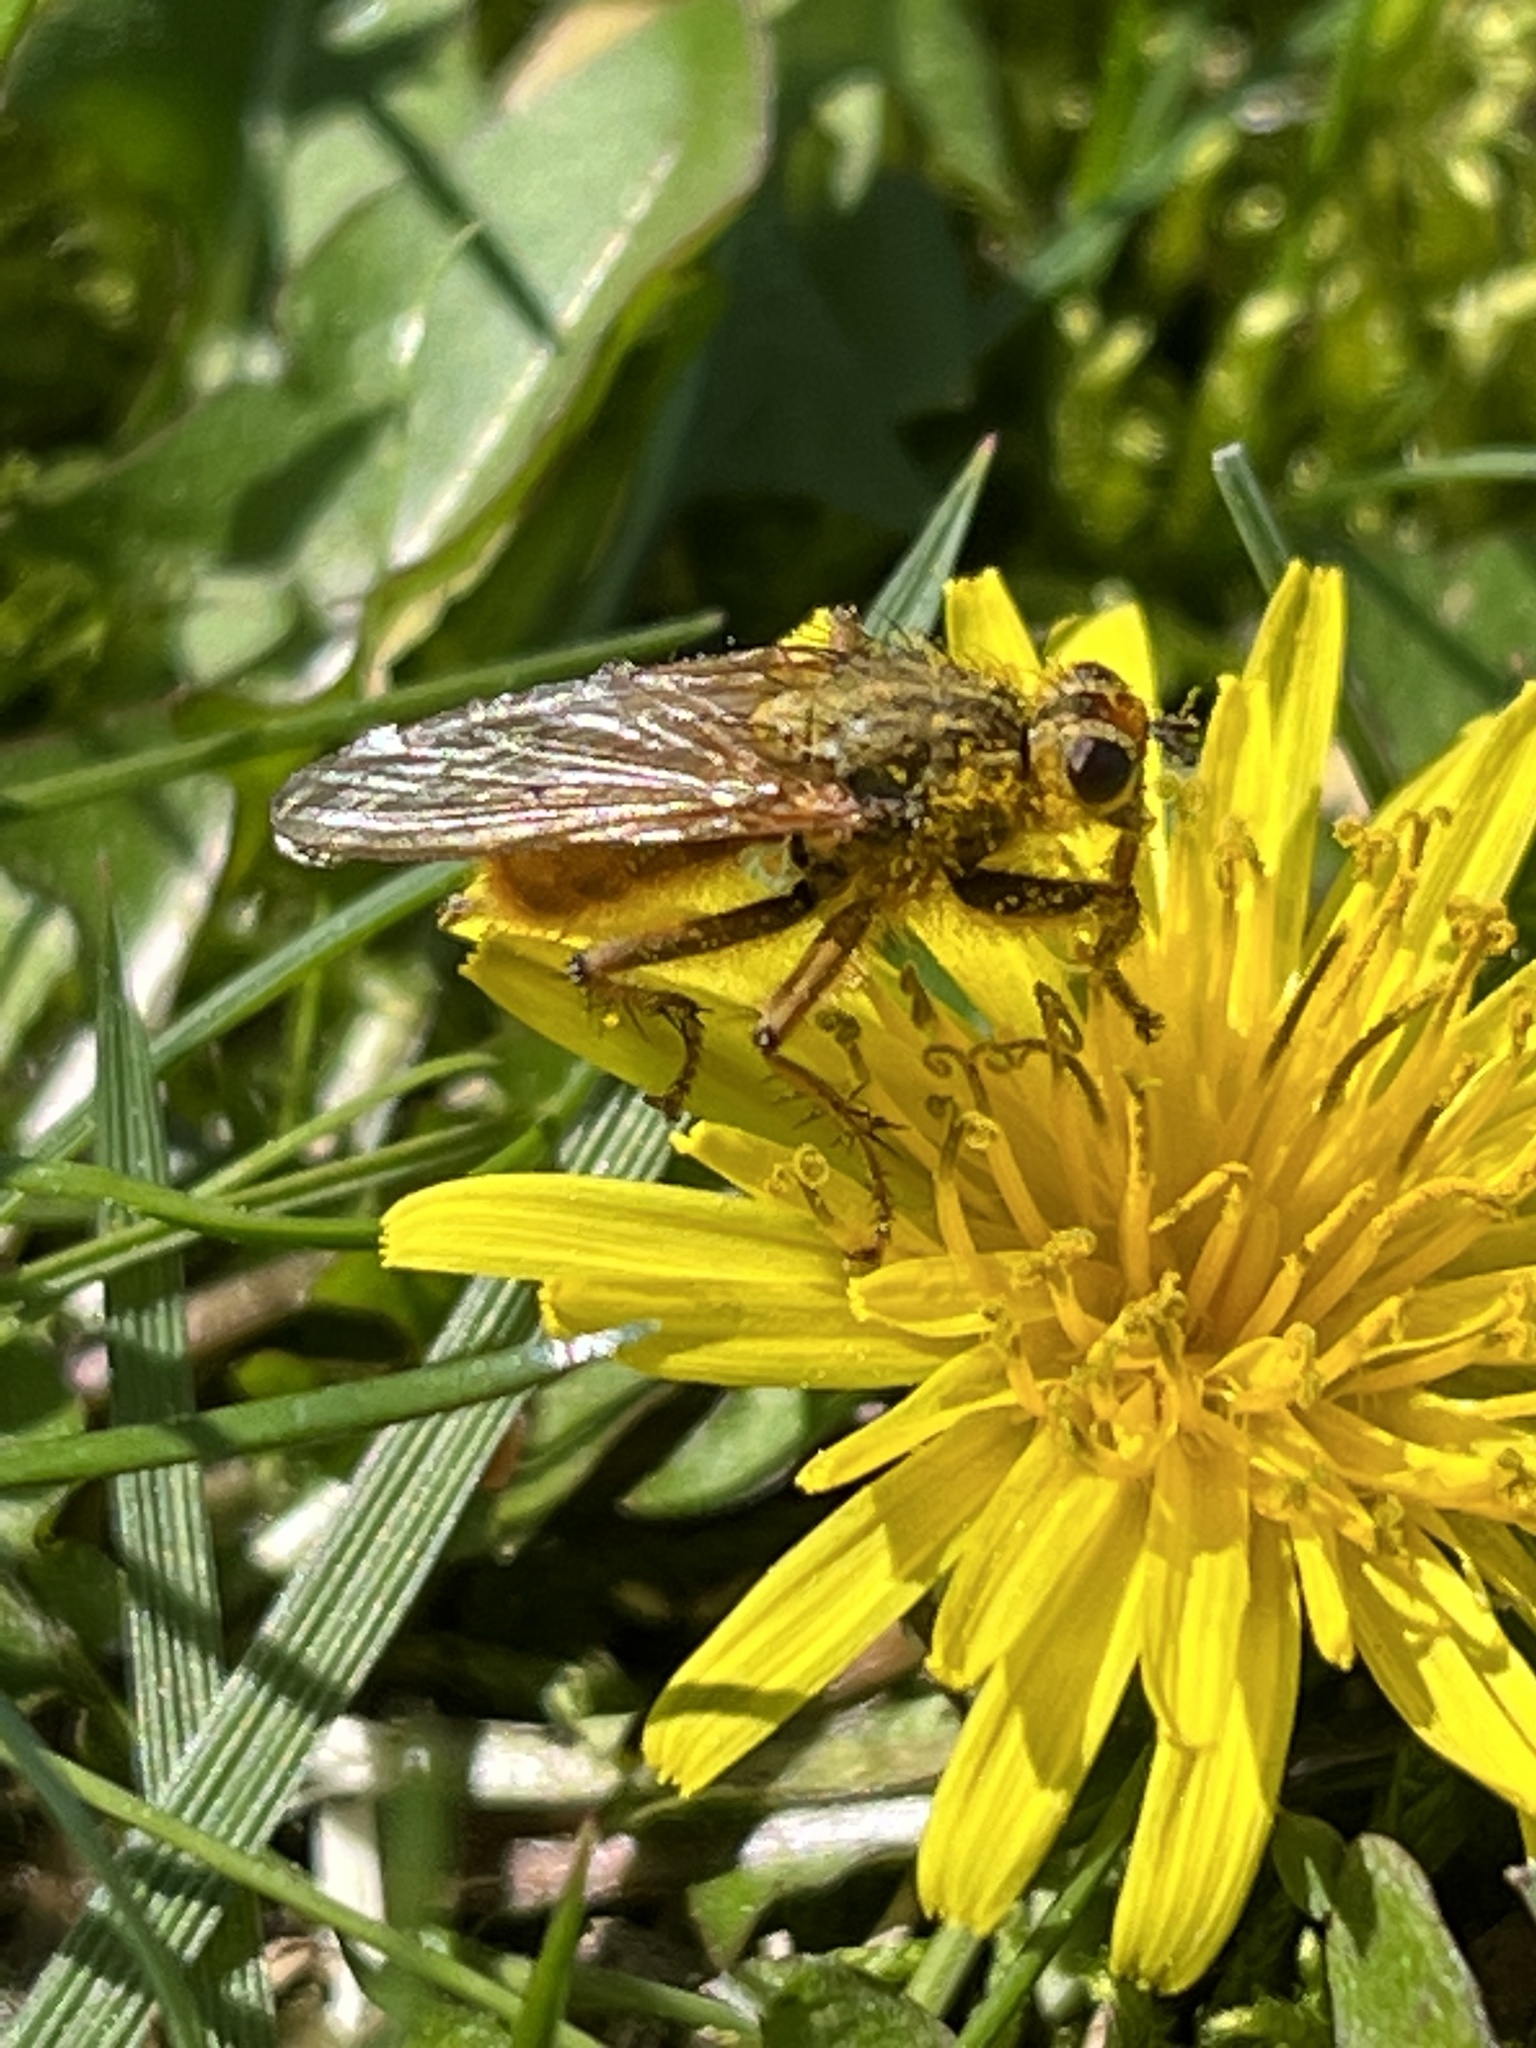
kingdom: Animalia
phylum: Arthropoda
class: Insecta
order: Diptera
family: Scathophagidae
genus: Scathophaga
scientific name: Scathophaga stercoraria
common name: Yellow dung fly
